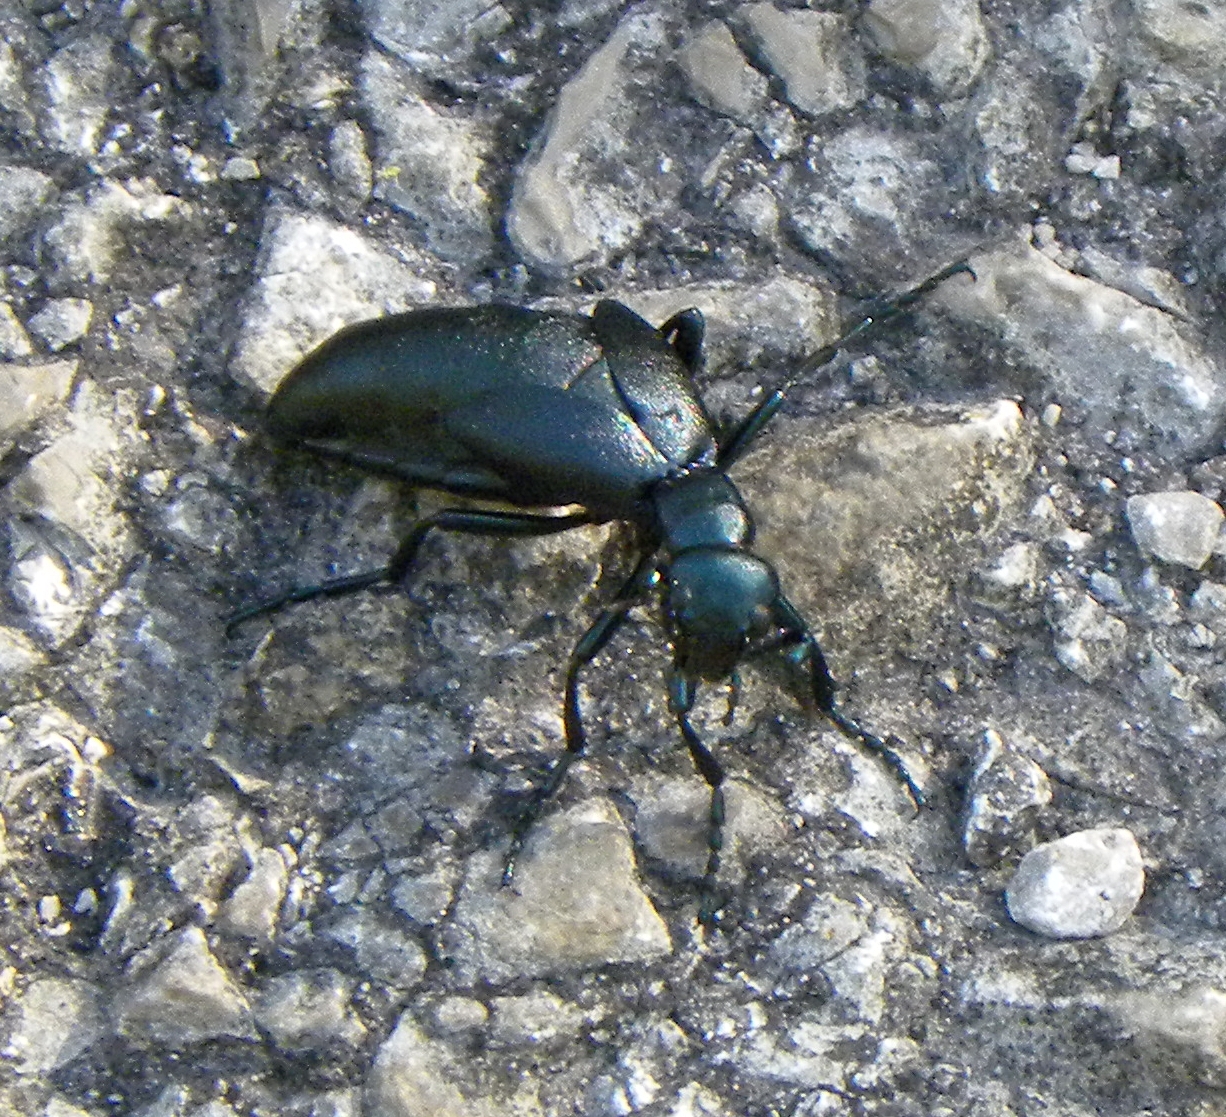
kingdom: Animalia
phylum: Arthropoda
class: Insecta
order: Coleoptera
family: Meloidae
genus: Meloe
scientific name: Meloe campanicollis
